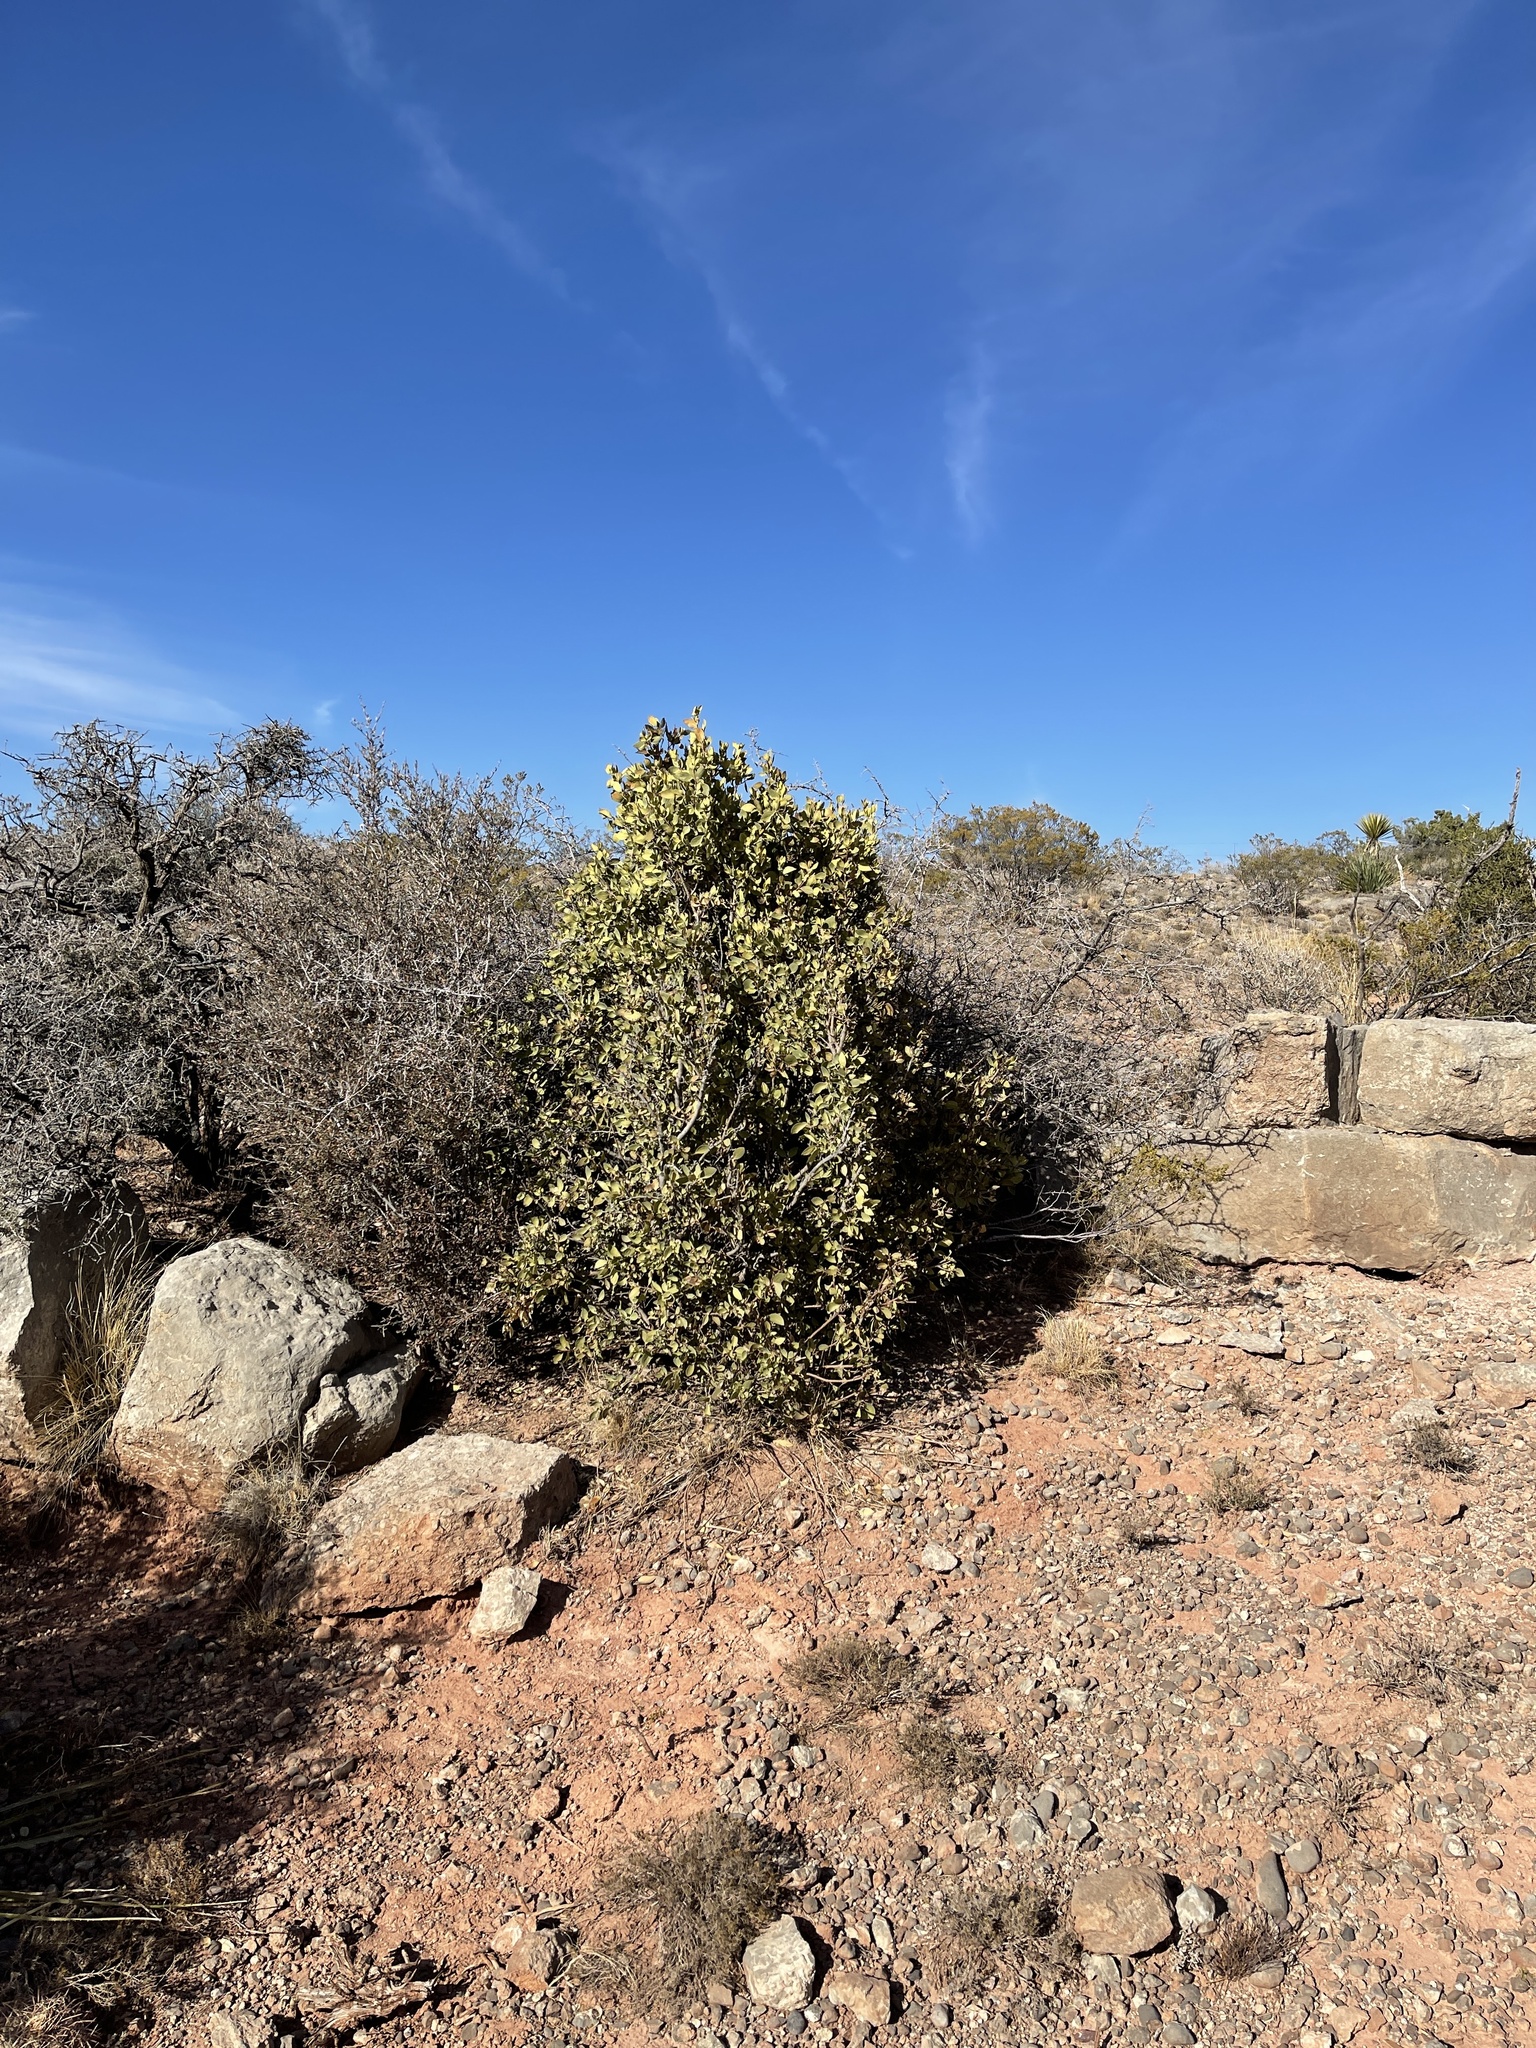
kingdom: Plantae
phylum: Tracheophyta
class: Magnoliopsida
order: Garryales
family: Garryaceae
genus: Garrya
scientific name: Garrya wrightii
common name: Wright's silktassel
